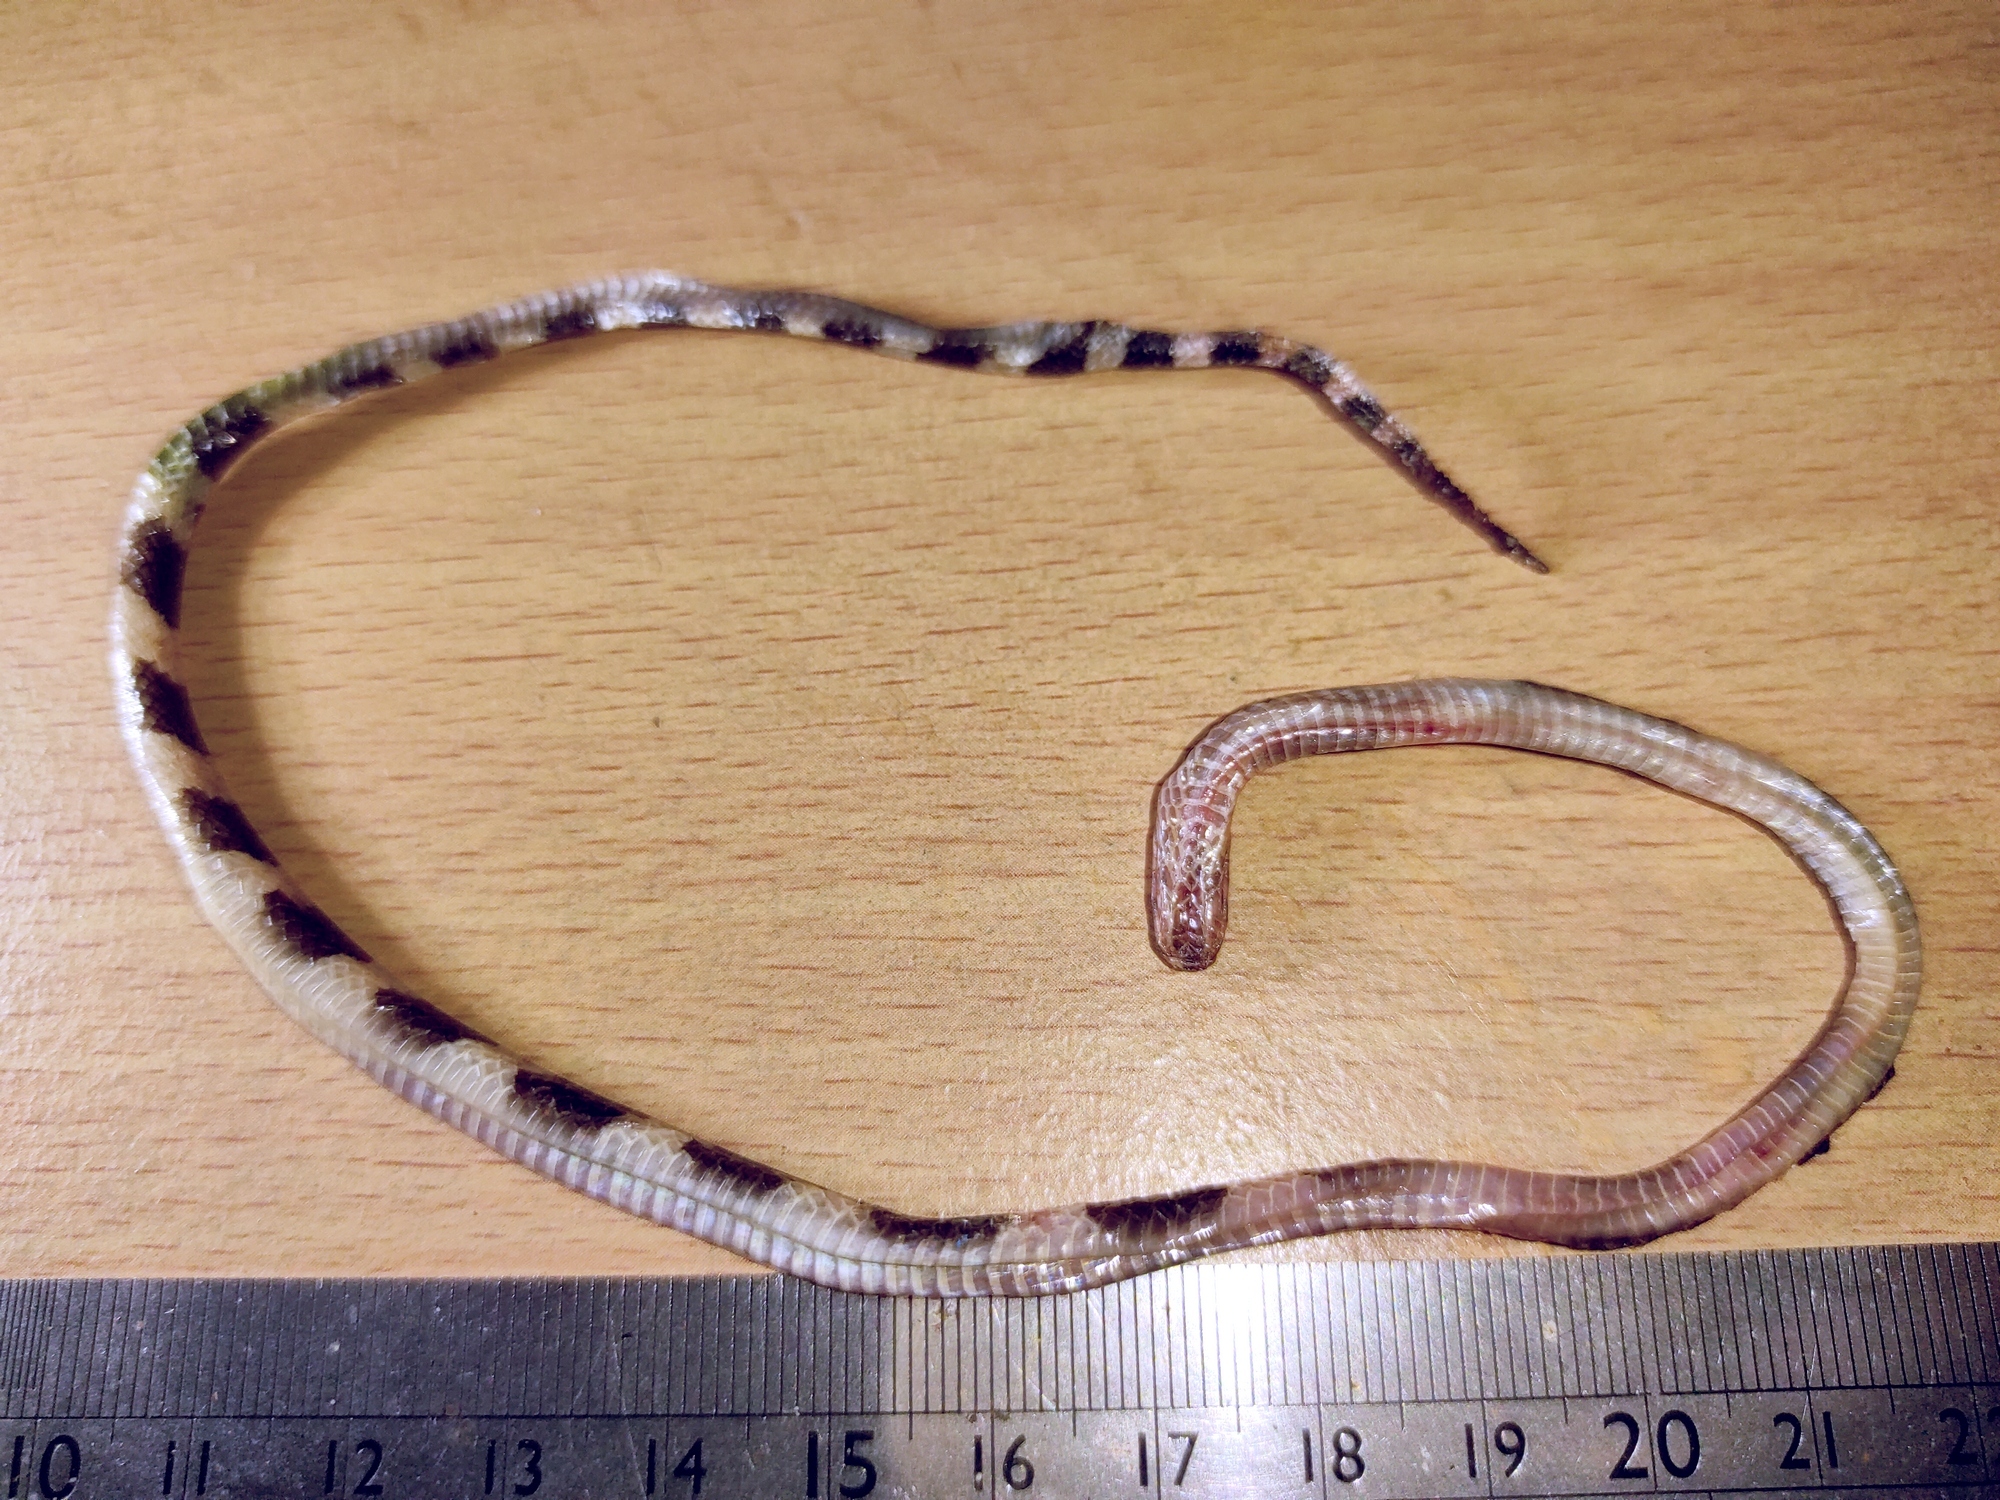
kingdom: Animalia
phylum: Chordata
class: Squamata
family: Elapidae
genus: Bungarus
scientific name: Bungarus candidus
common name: Blue krait/malayan krait
